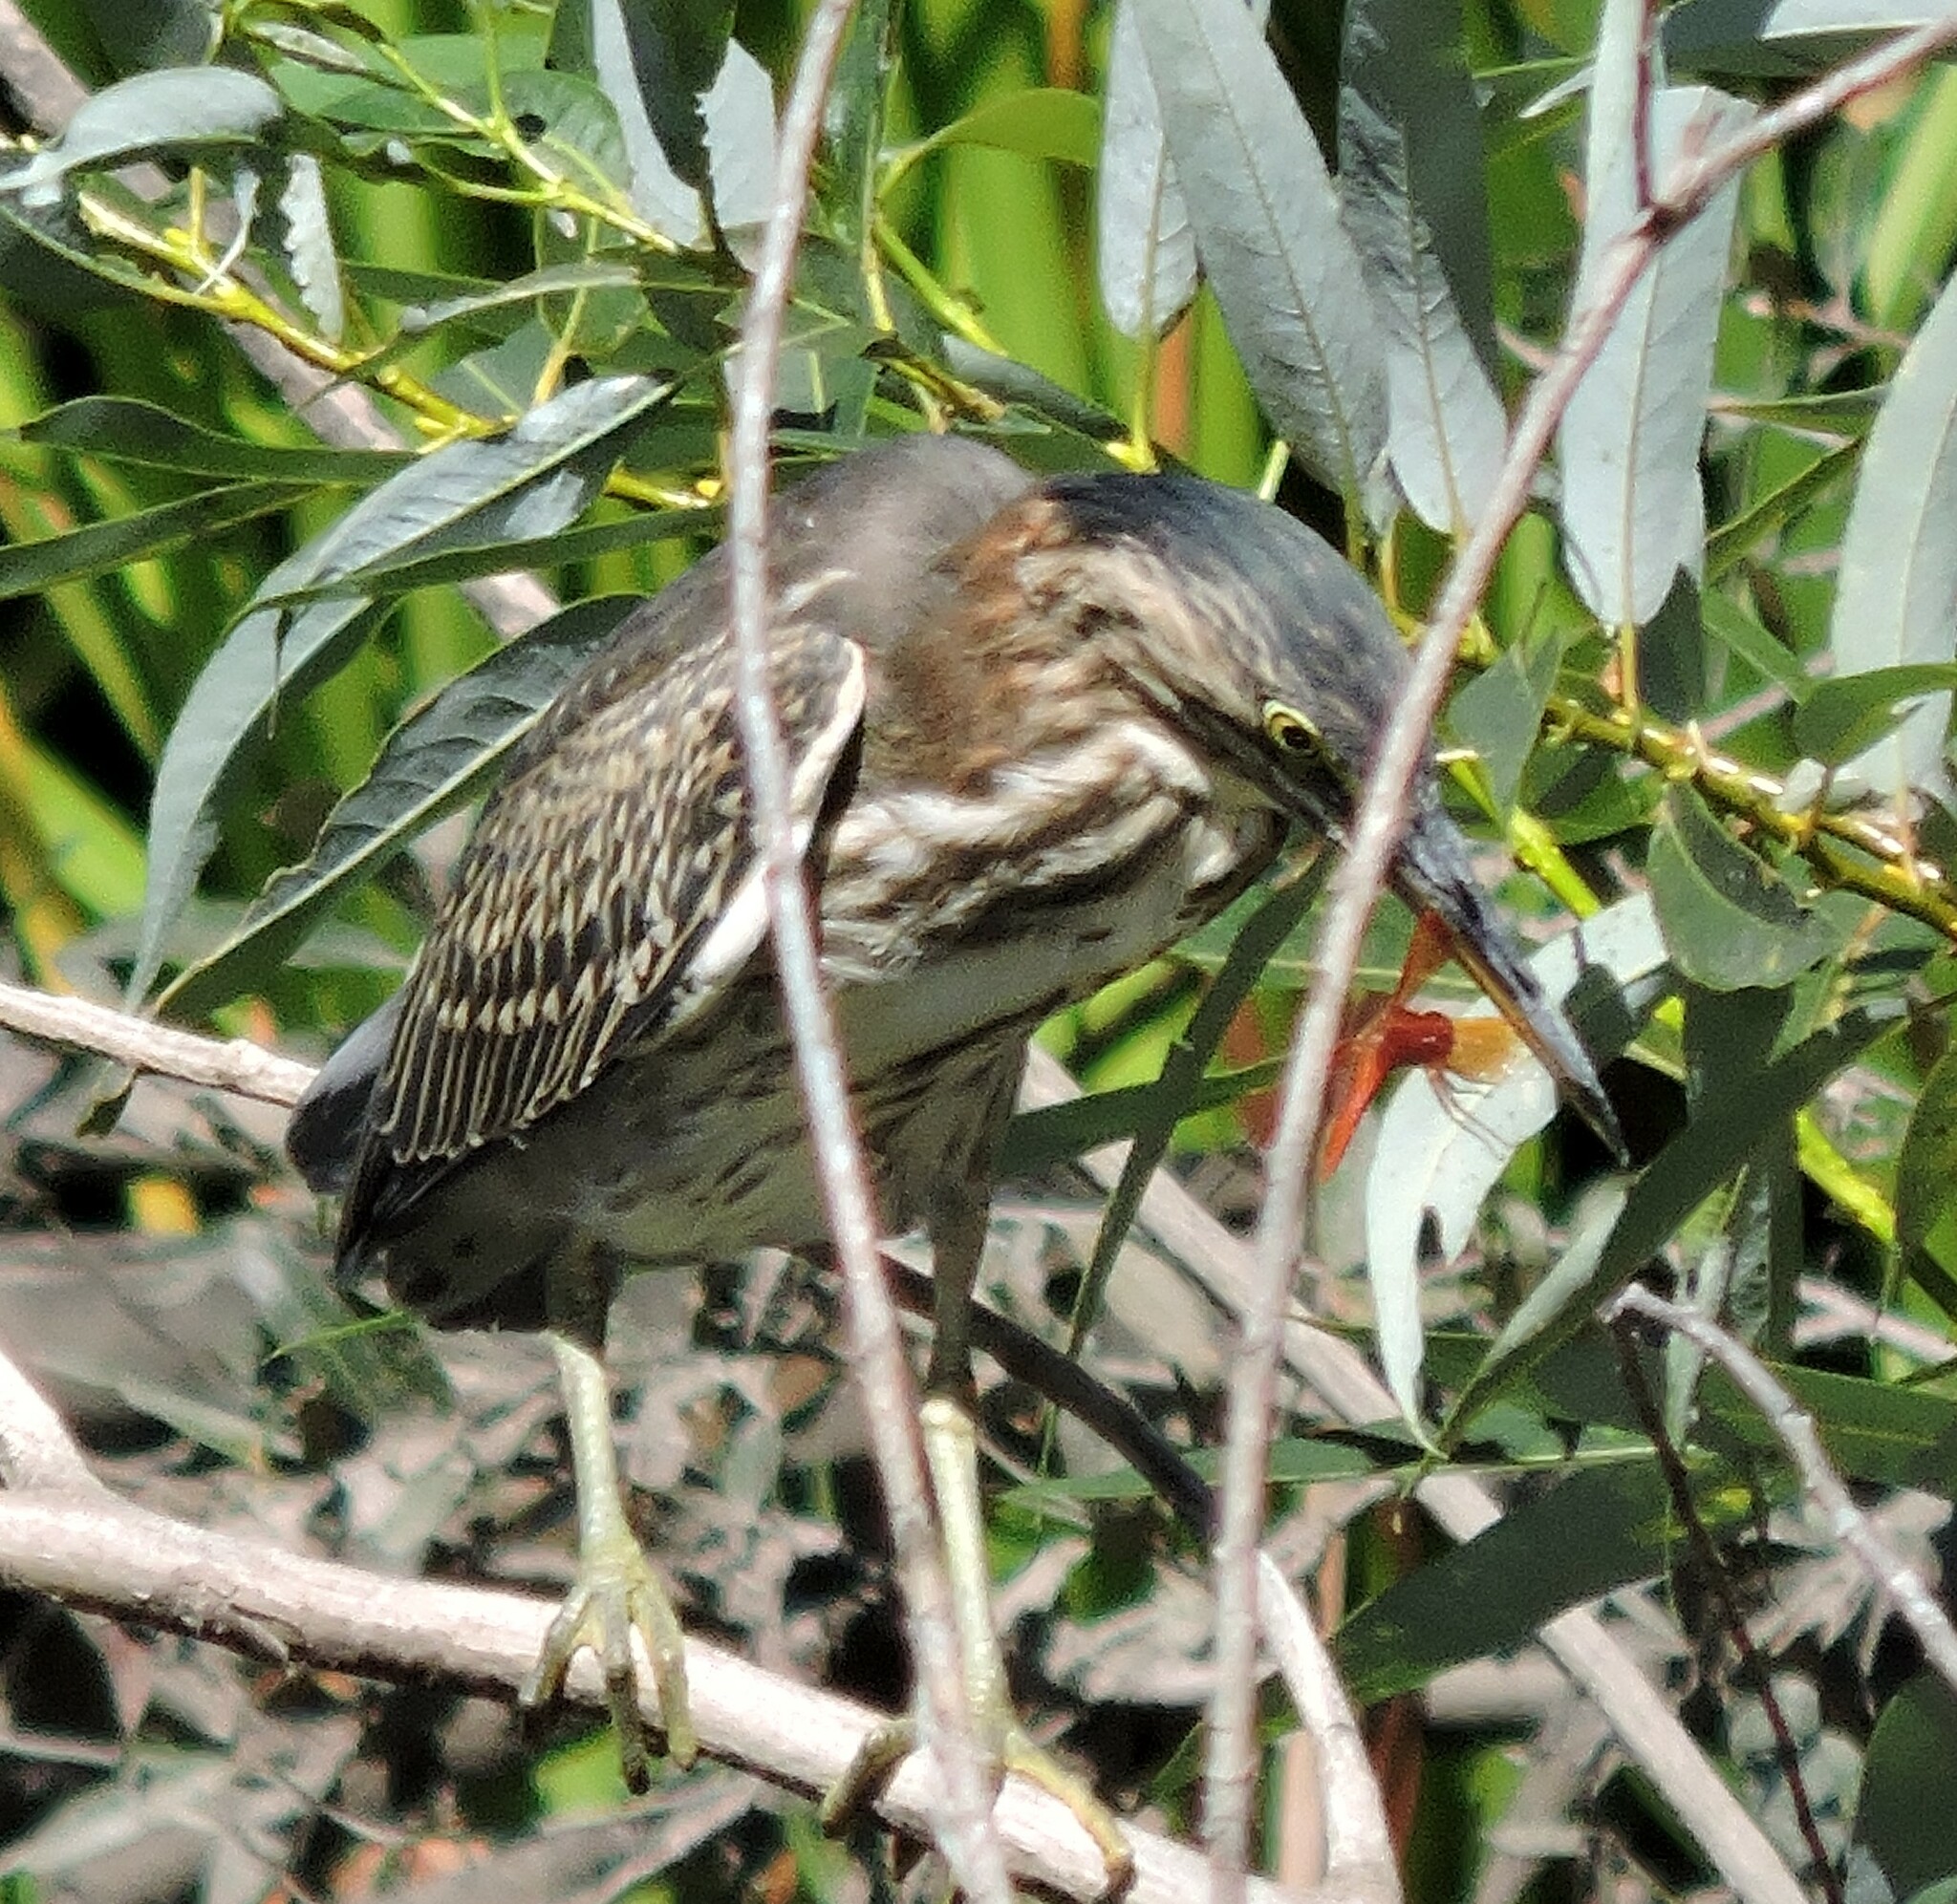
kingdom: Animalia
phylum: Chordata
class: Aves
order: Pelecaniformes
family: Ardeidae
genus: Butorides
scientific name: Butorides virescens
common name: Green heron
